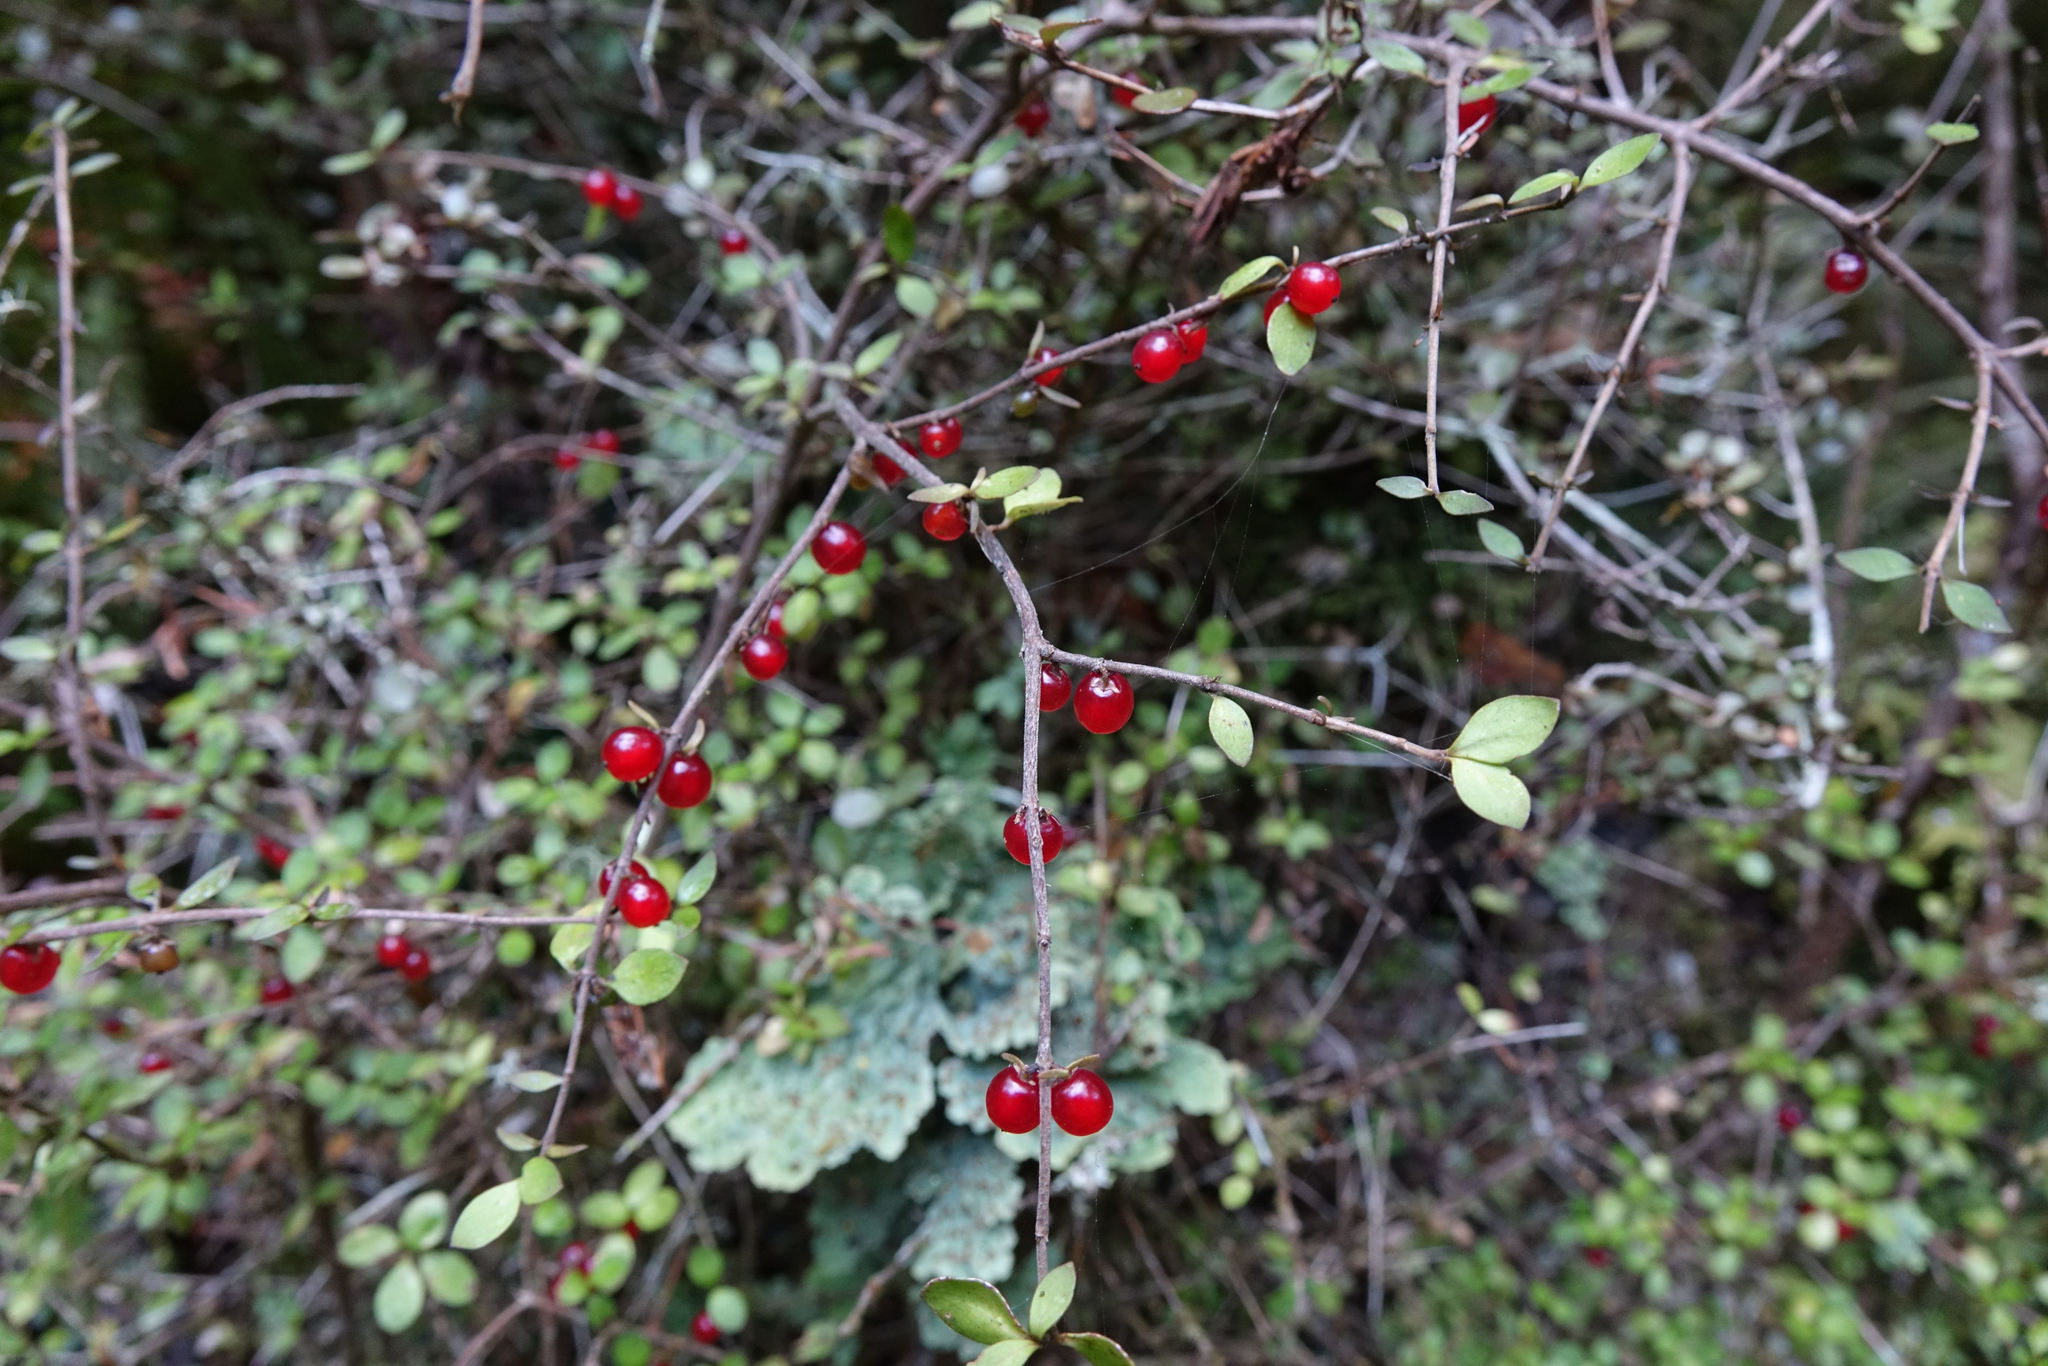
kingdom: Plantae
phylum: Tracheophyta
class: Magnoliopsida
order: Gentianales
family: Rubiaceae
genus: Coprosma
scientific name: Coprosma rhamnoides
